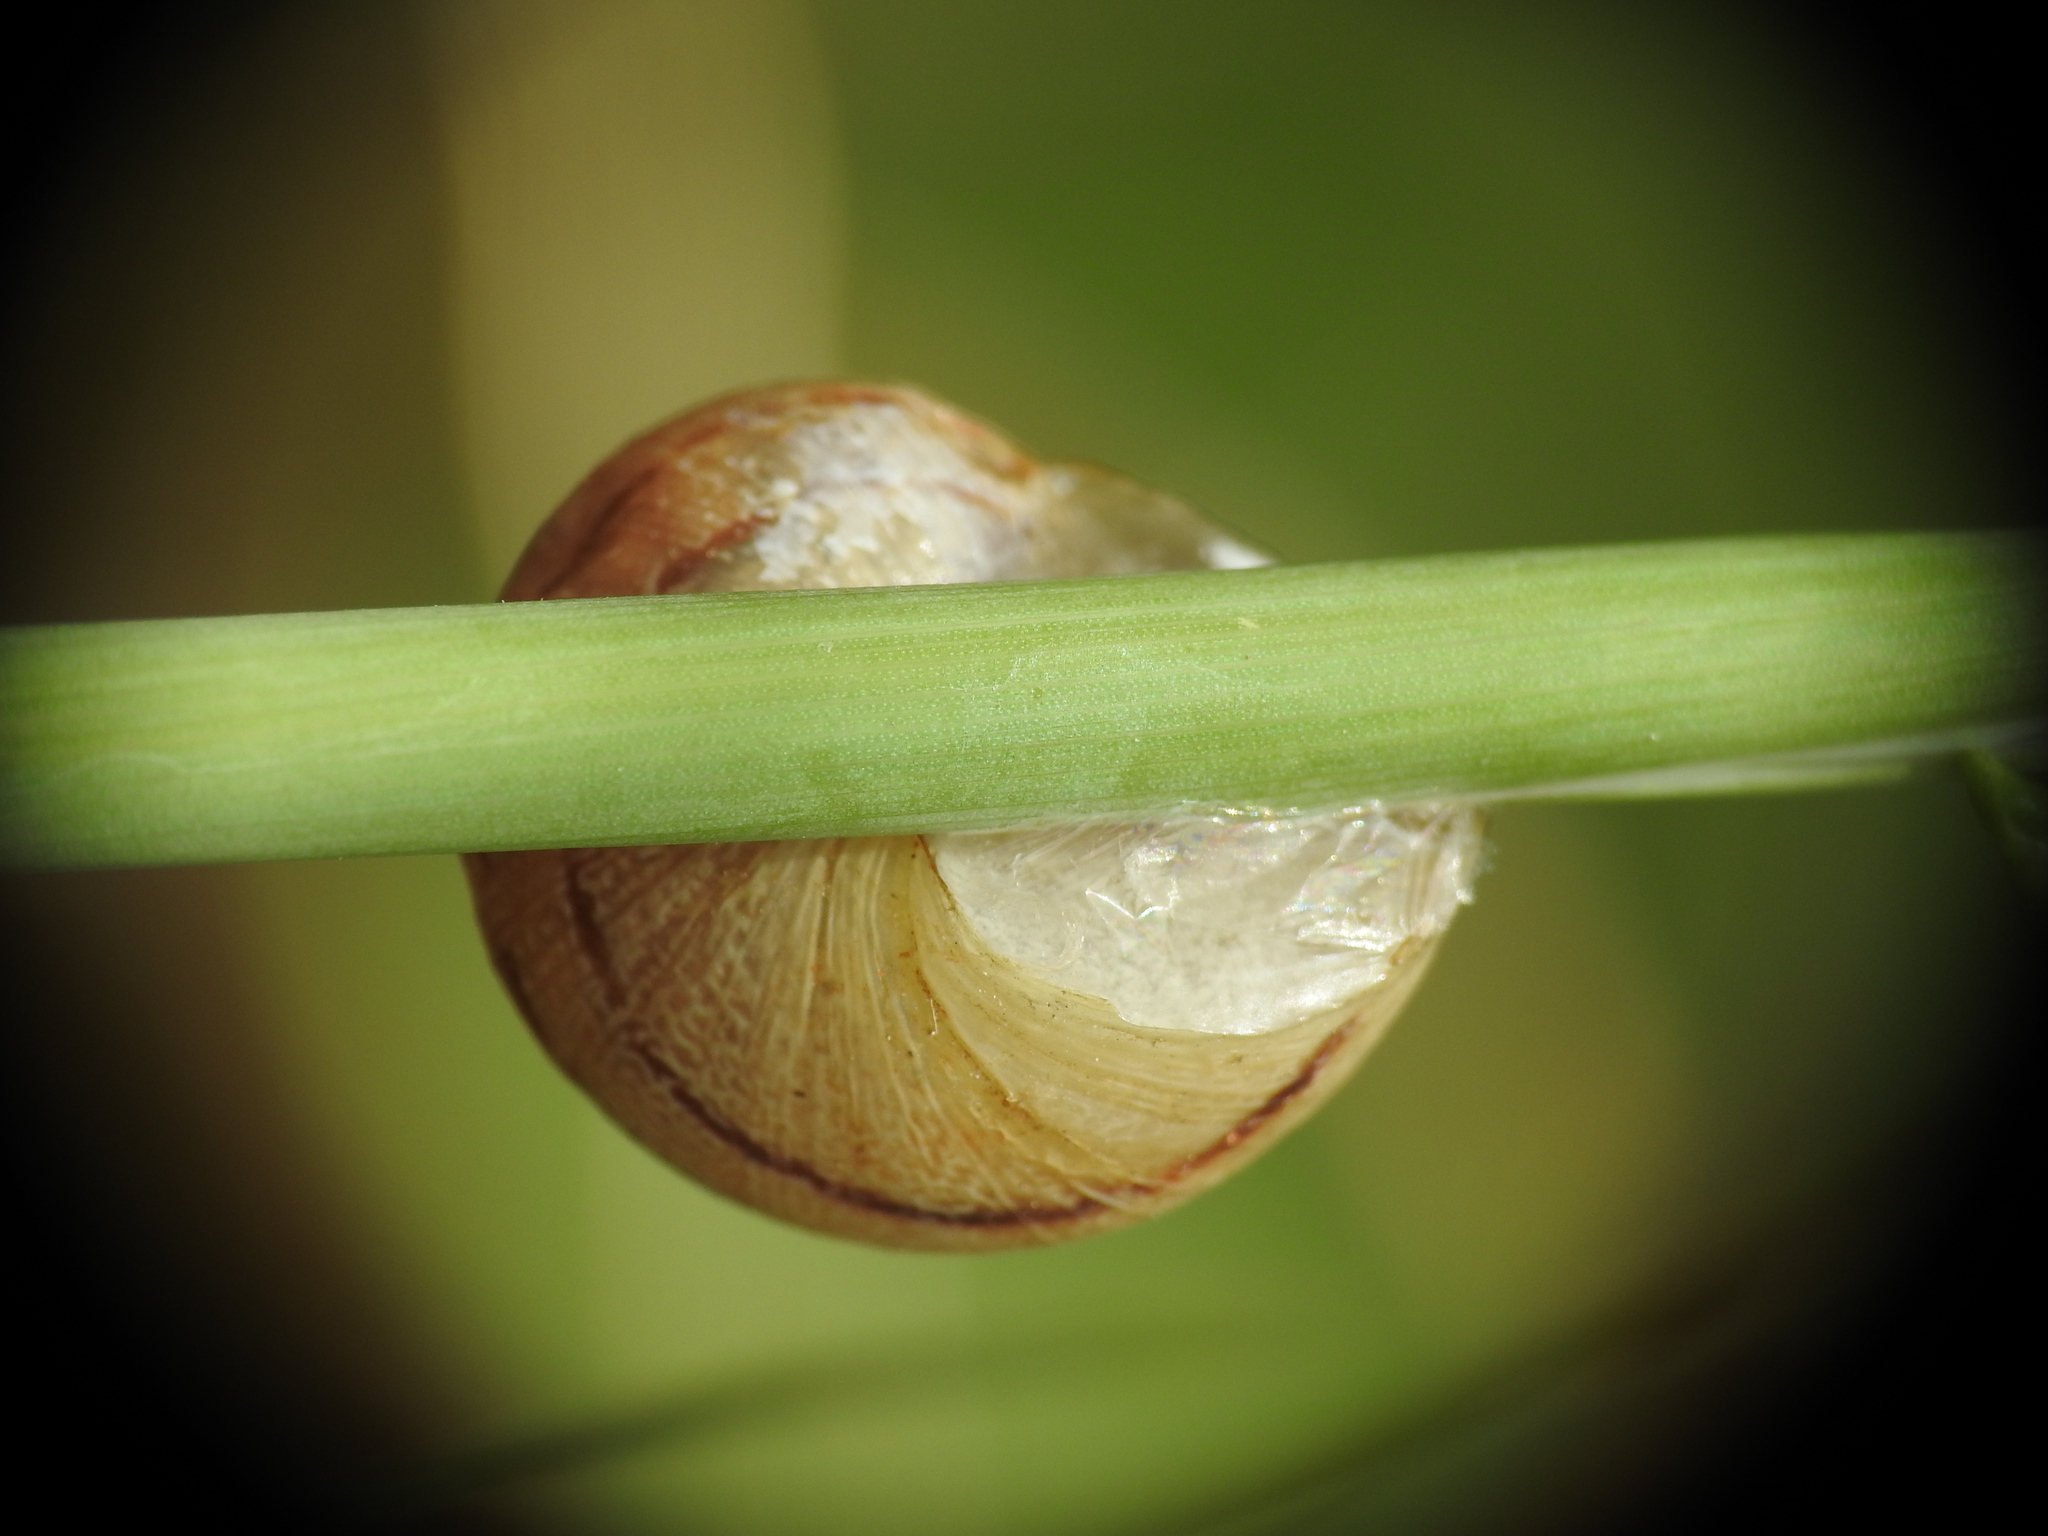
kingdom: Animalia
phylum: Mollusca
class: Gastropoda
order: Stylommatophora
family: Helicidae
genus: Cornu
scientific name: Cornu aspersum
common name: Brown garden snail
